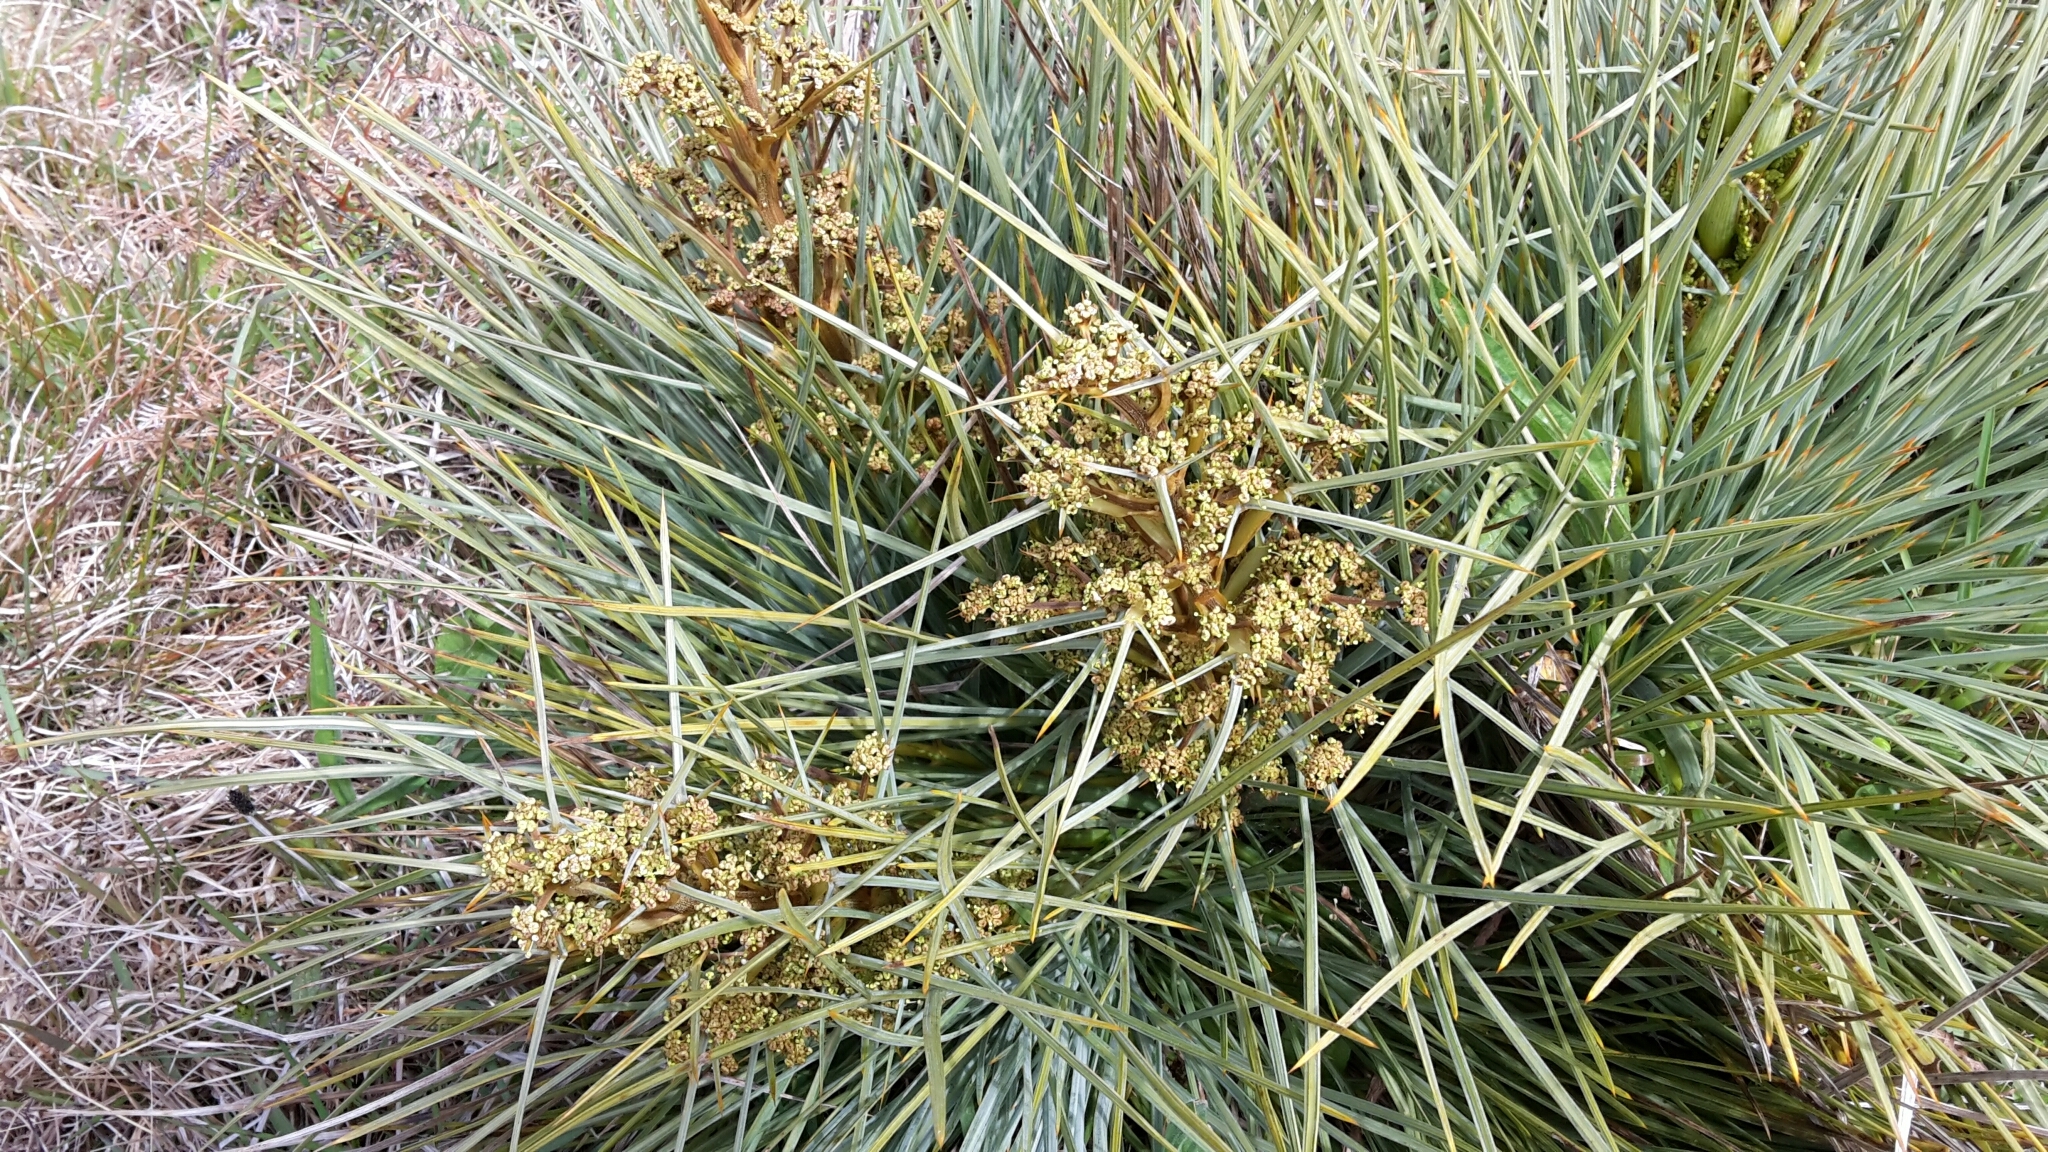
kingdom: Plantae
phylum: Tracheophyta
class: Magnoliopsida
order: Apiales
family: Apiaceae
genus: Aciphylla
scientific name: Aciphylla squarrosa
